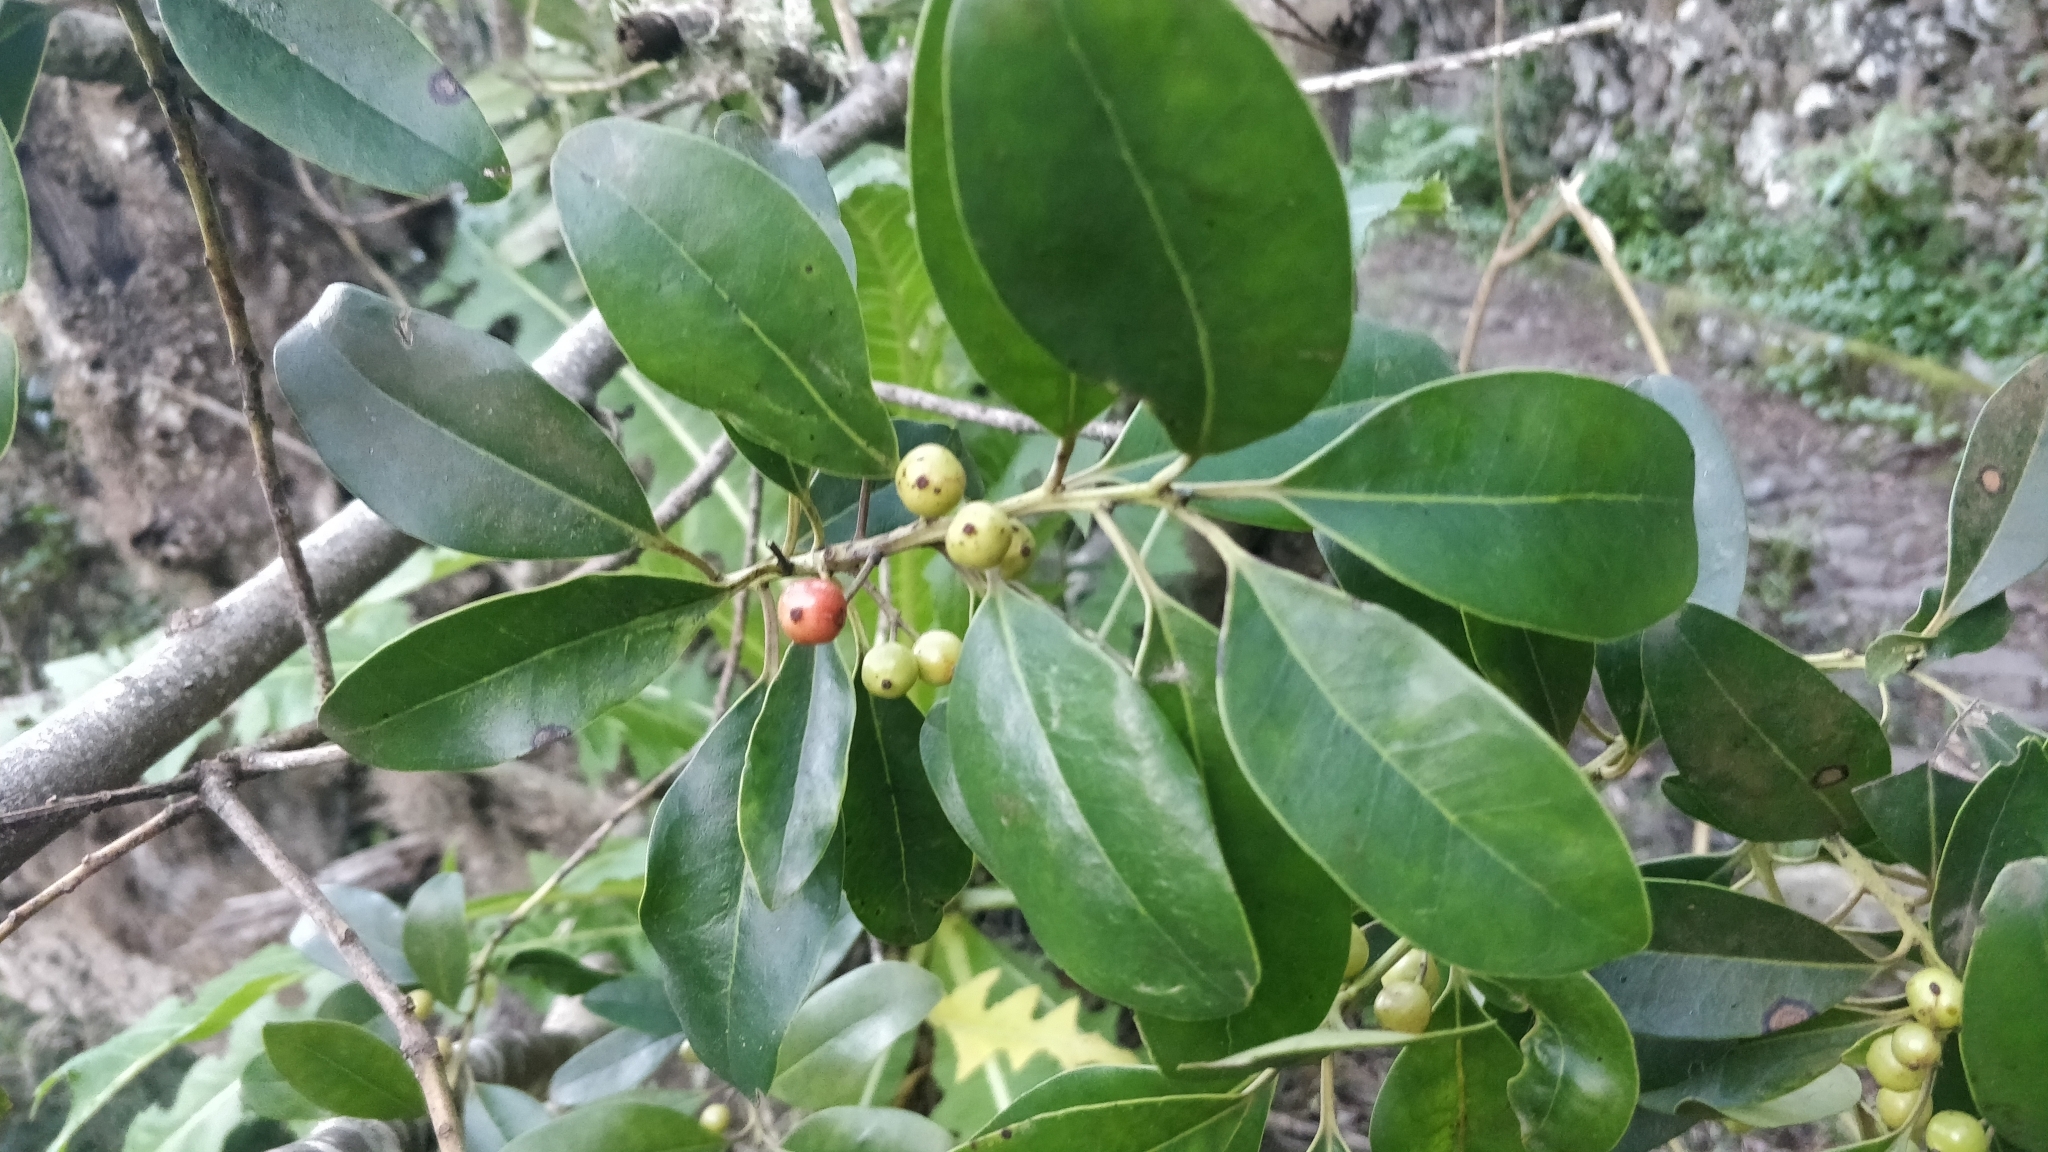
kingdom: Plantae
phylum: Tracheophyta
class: Magnoliopsida
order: Aquifoliales
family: Aquifoliaceae
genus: Ilex
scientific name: Ilex canariensis
